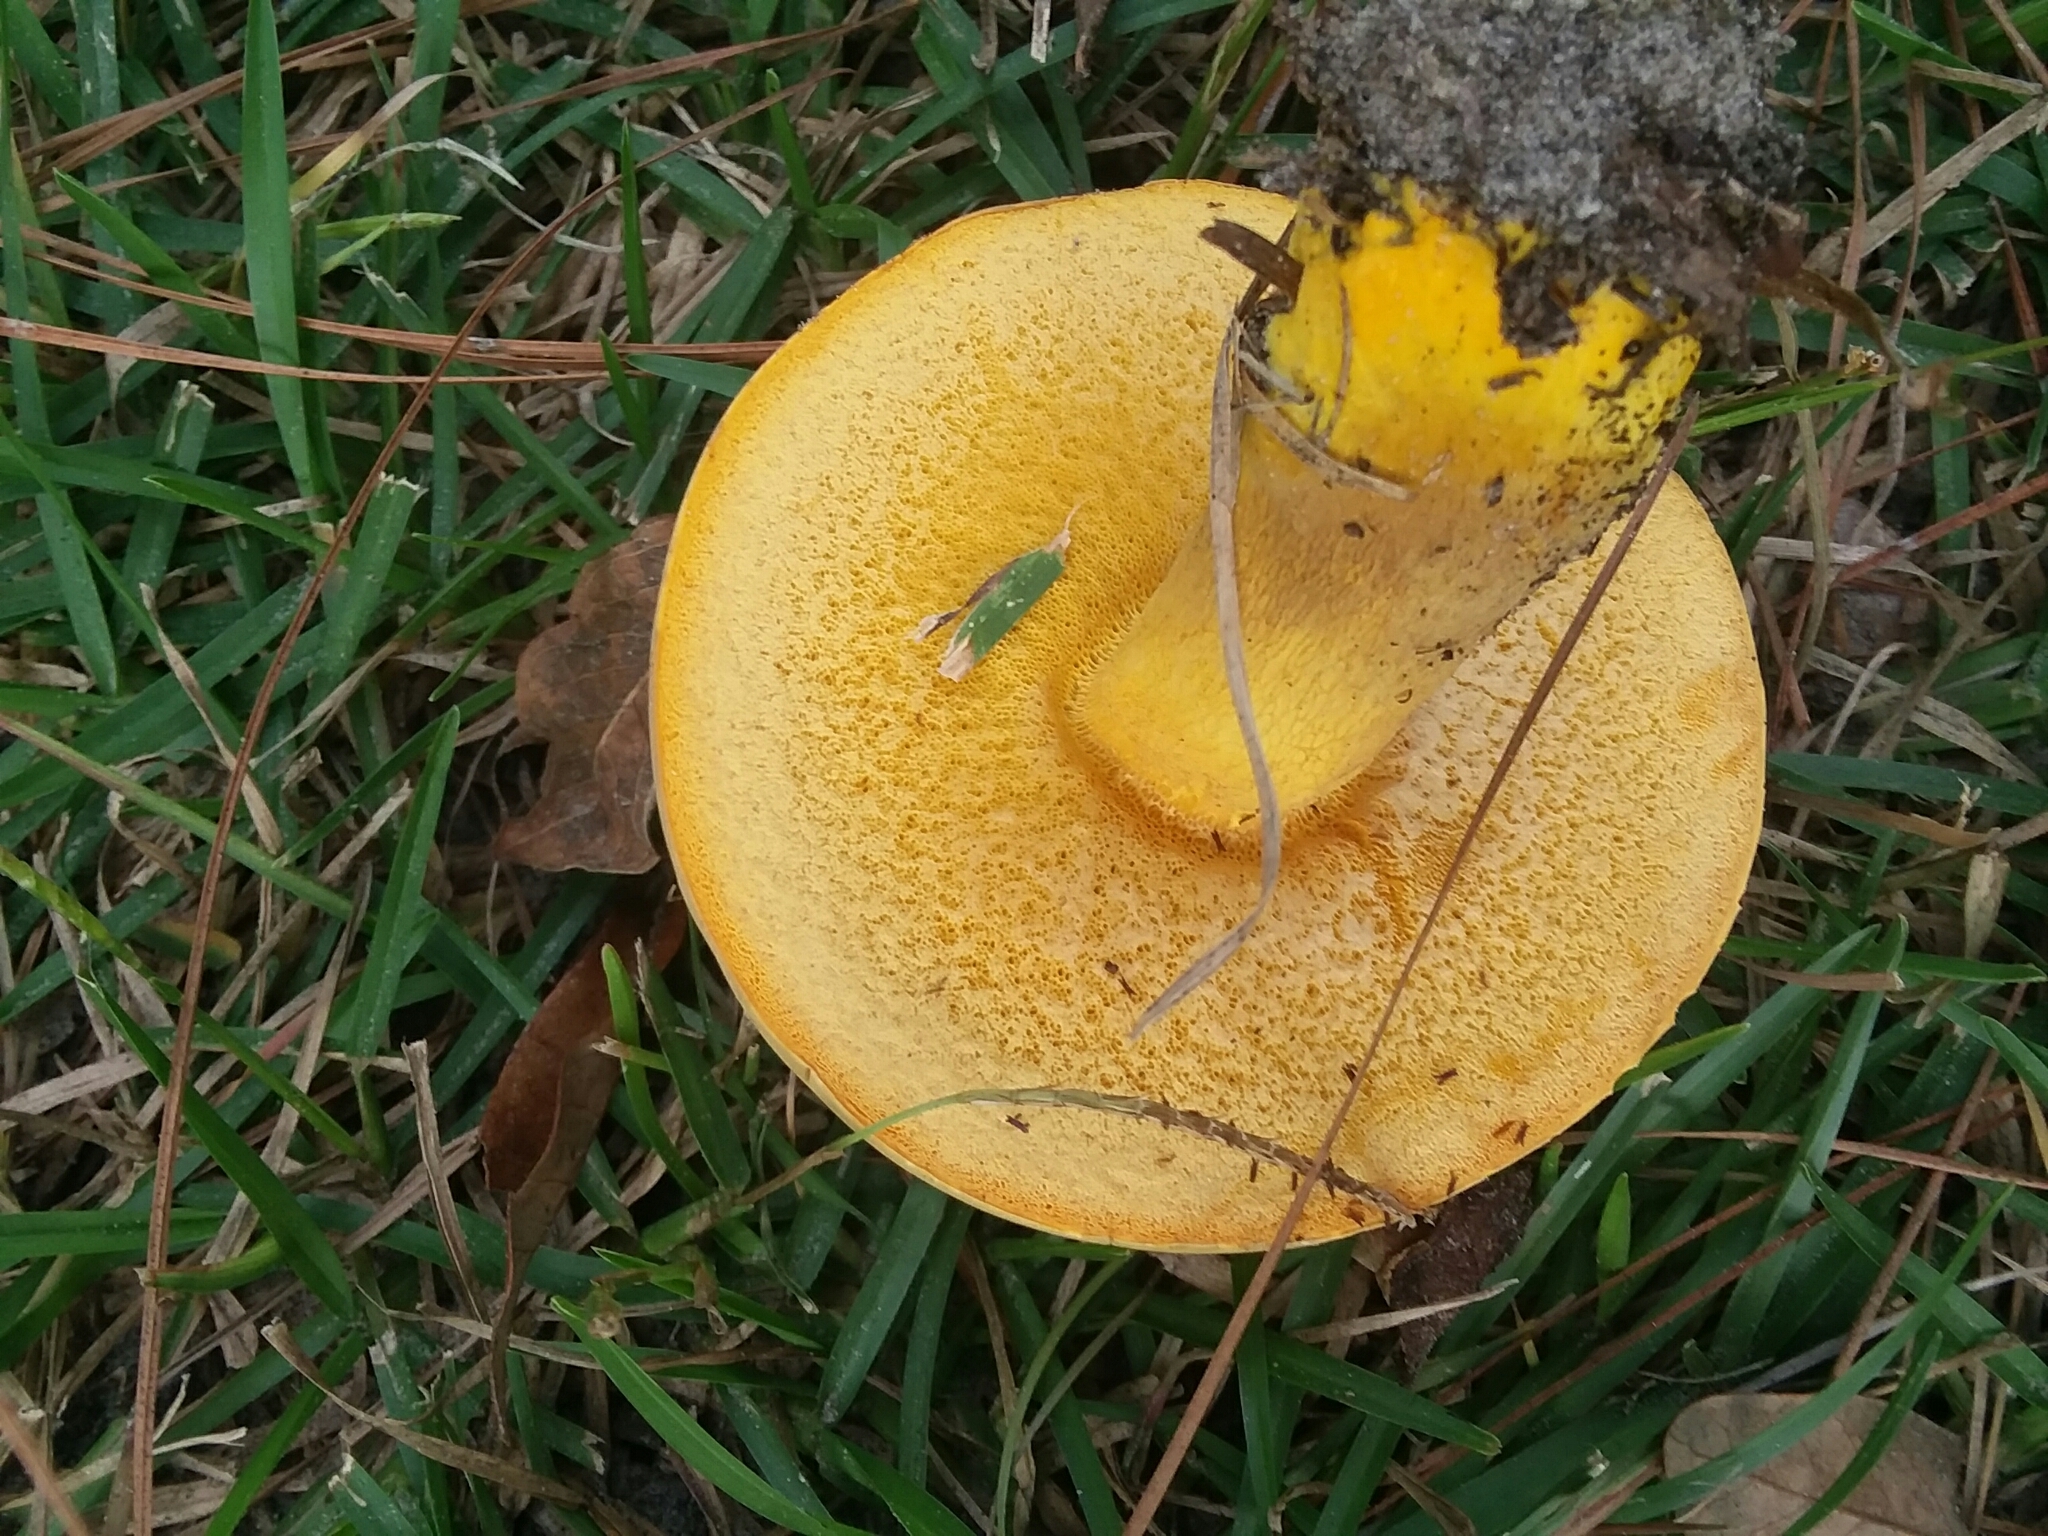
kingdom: Fungi
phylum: Basidiomycota
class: Agaricomycetes
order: Boletales
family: Boletaceae
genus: Boletus
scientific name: Boletus auripes
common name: Butter-foot bolete
